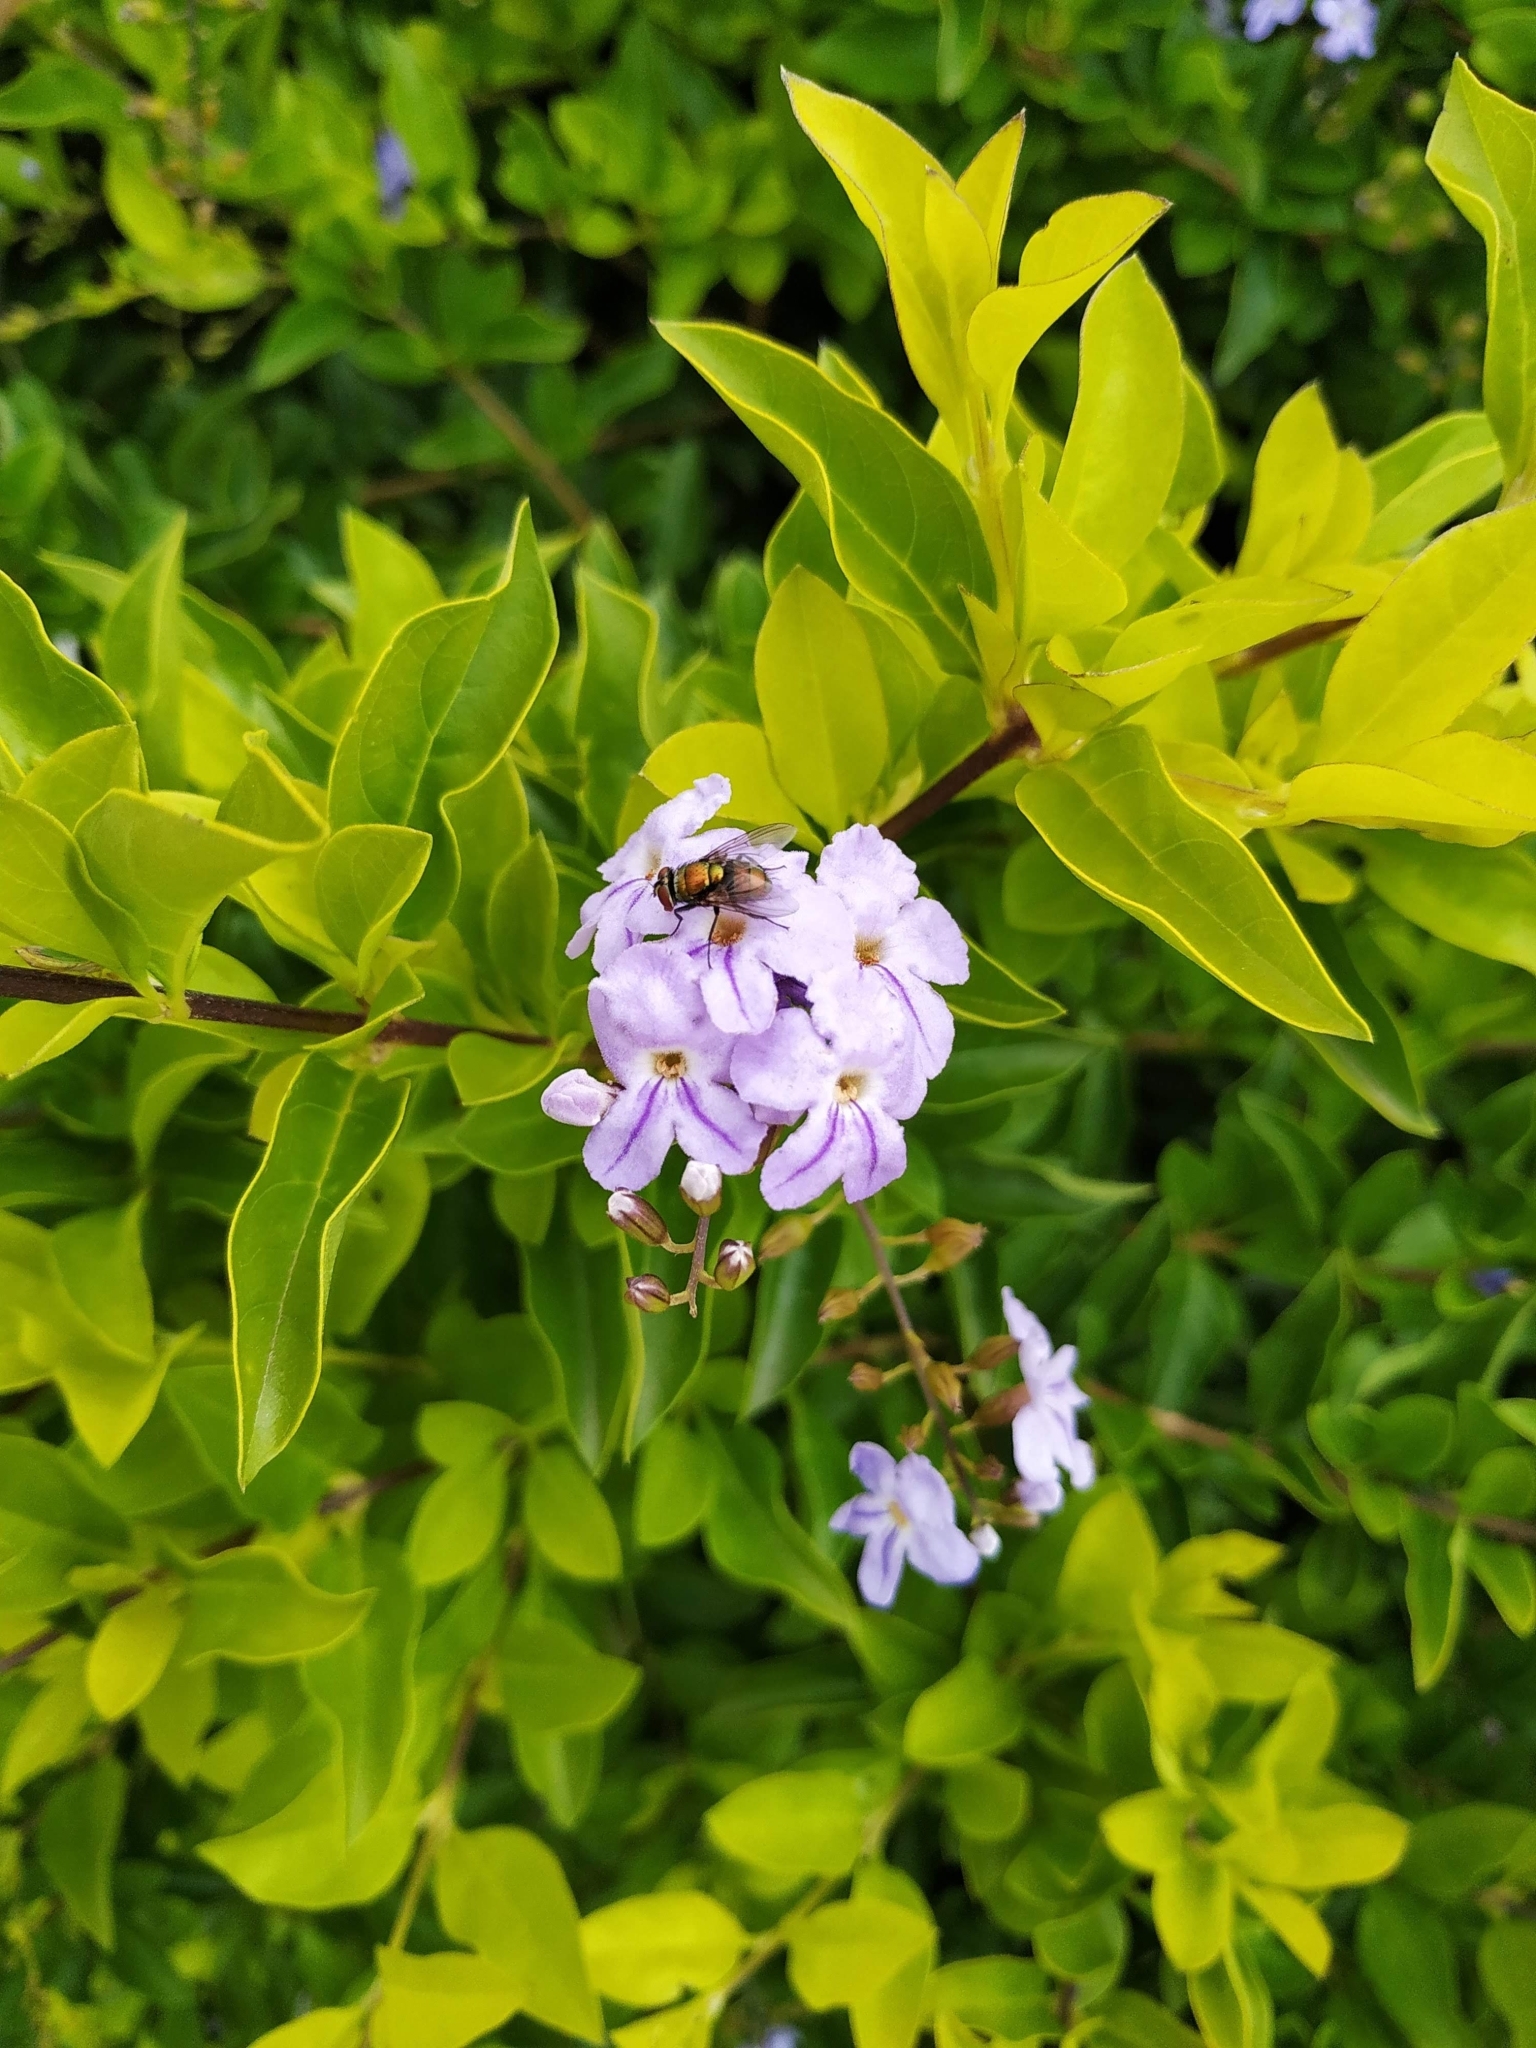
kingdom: Plantae
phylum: Tracheophyta
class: Magnoliopsida
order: Lamiales
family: Verbenaceae
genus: Duranta
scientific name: Duranta erecta
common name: Golden dewdrops
